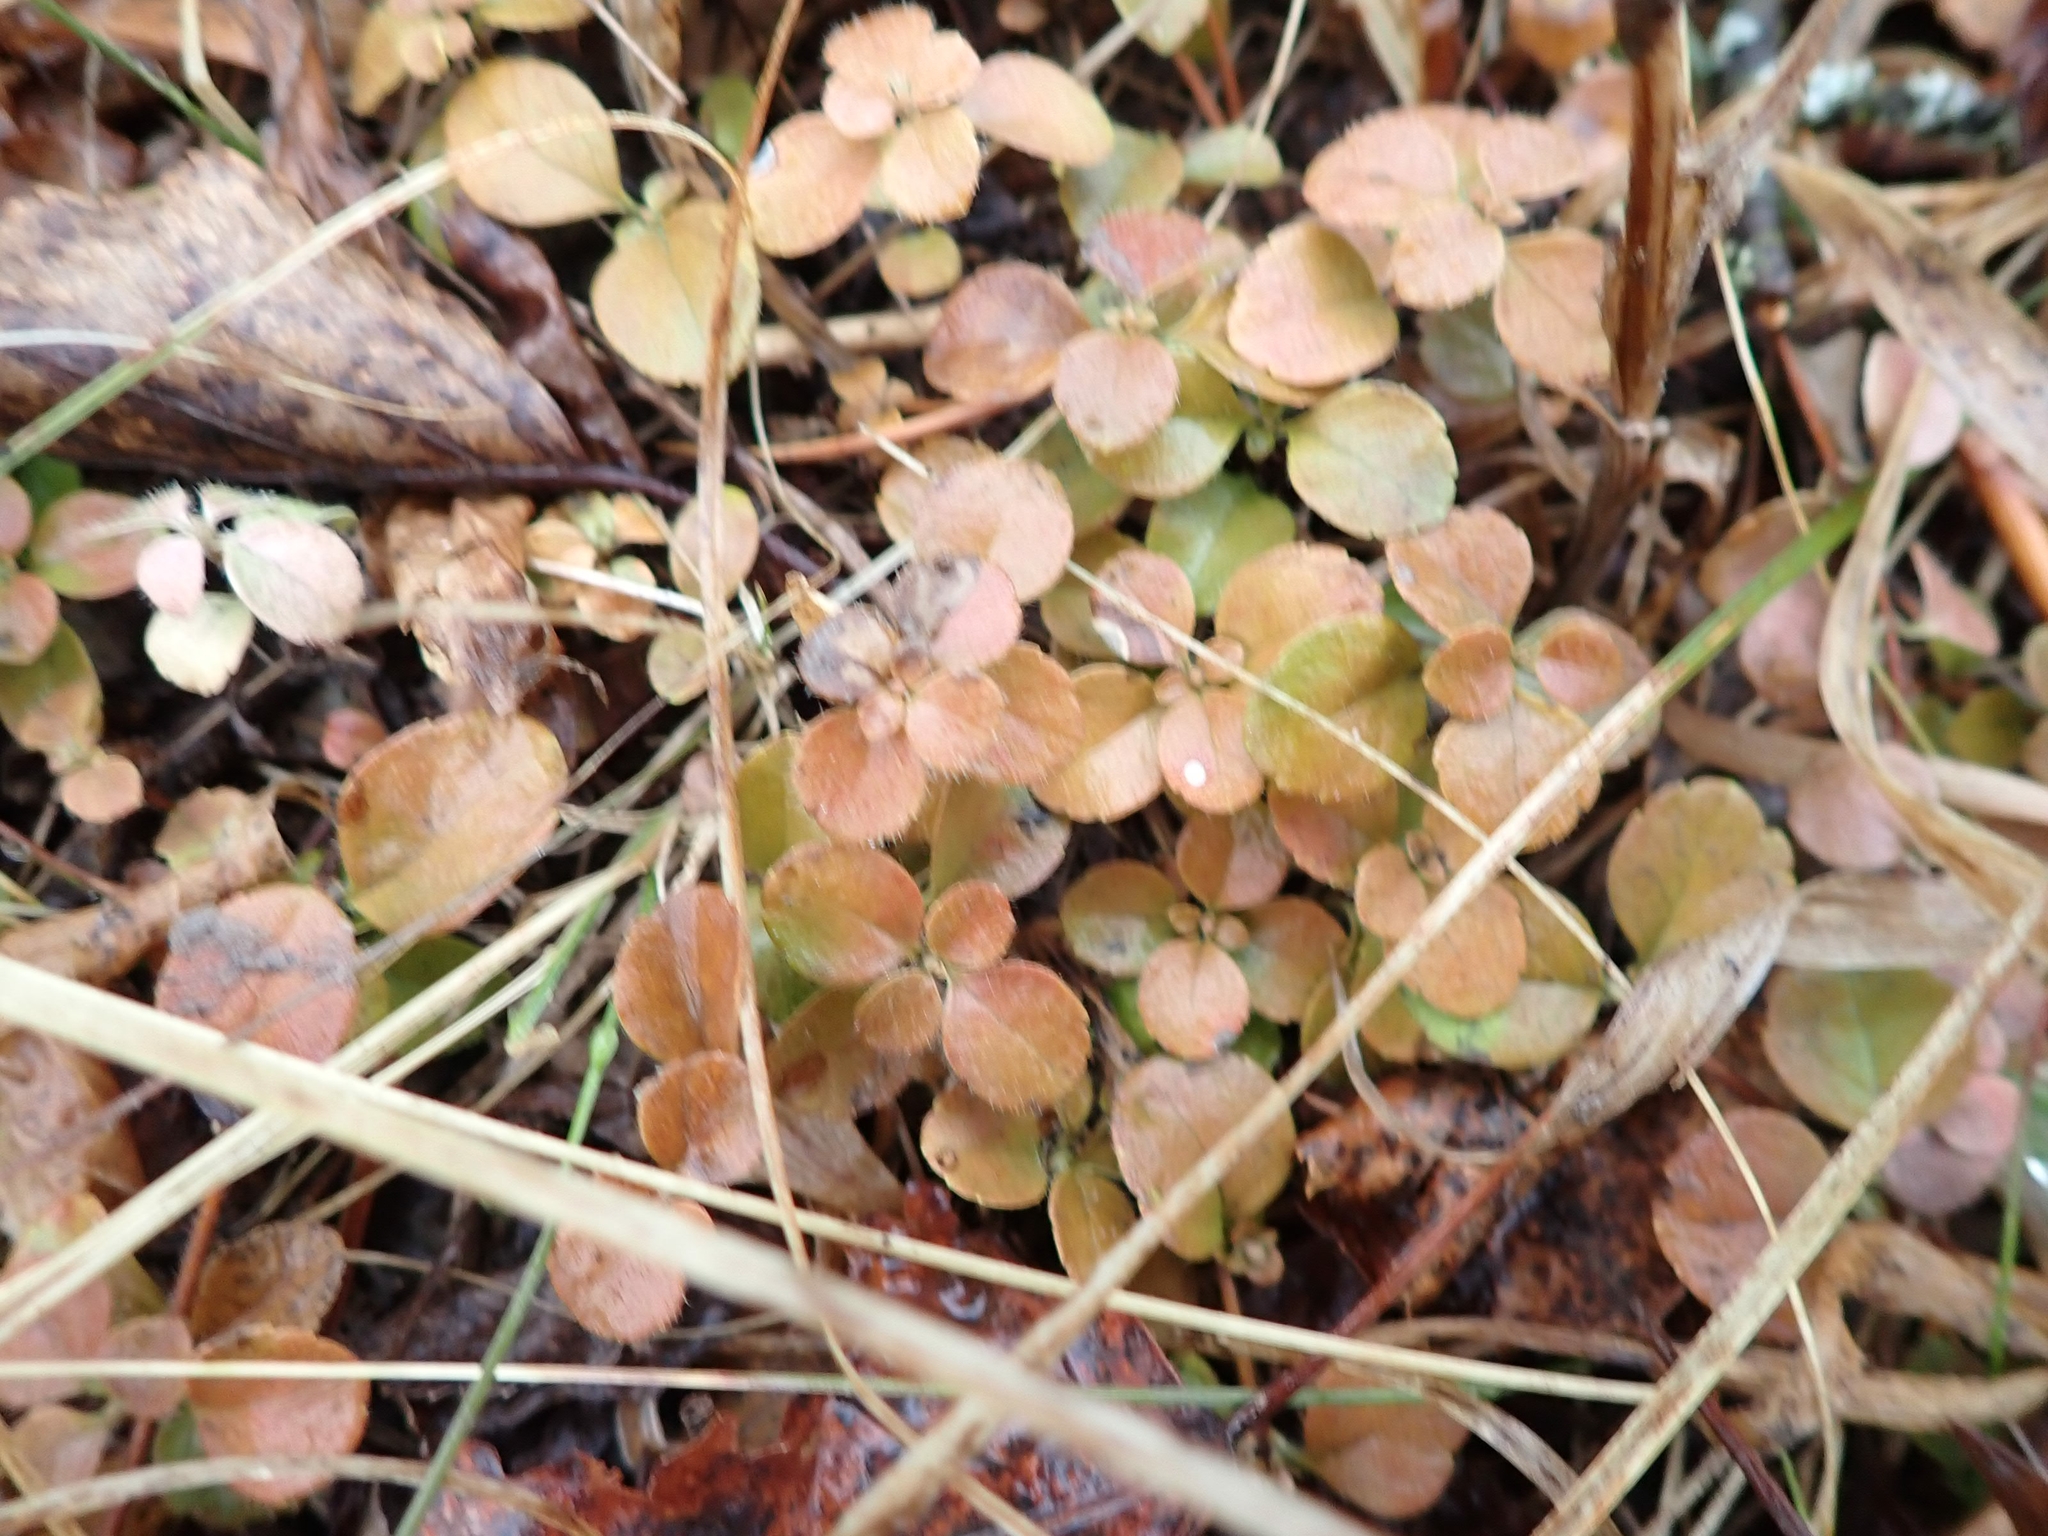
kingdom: Plantae
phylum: Tracheophyta
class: Magnoliopsida
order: Dipsacales
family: Caprifoliaceae
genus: Linnaea
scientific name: Linnaea borealis
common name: Twinflower
